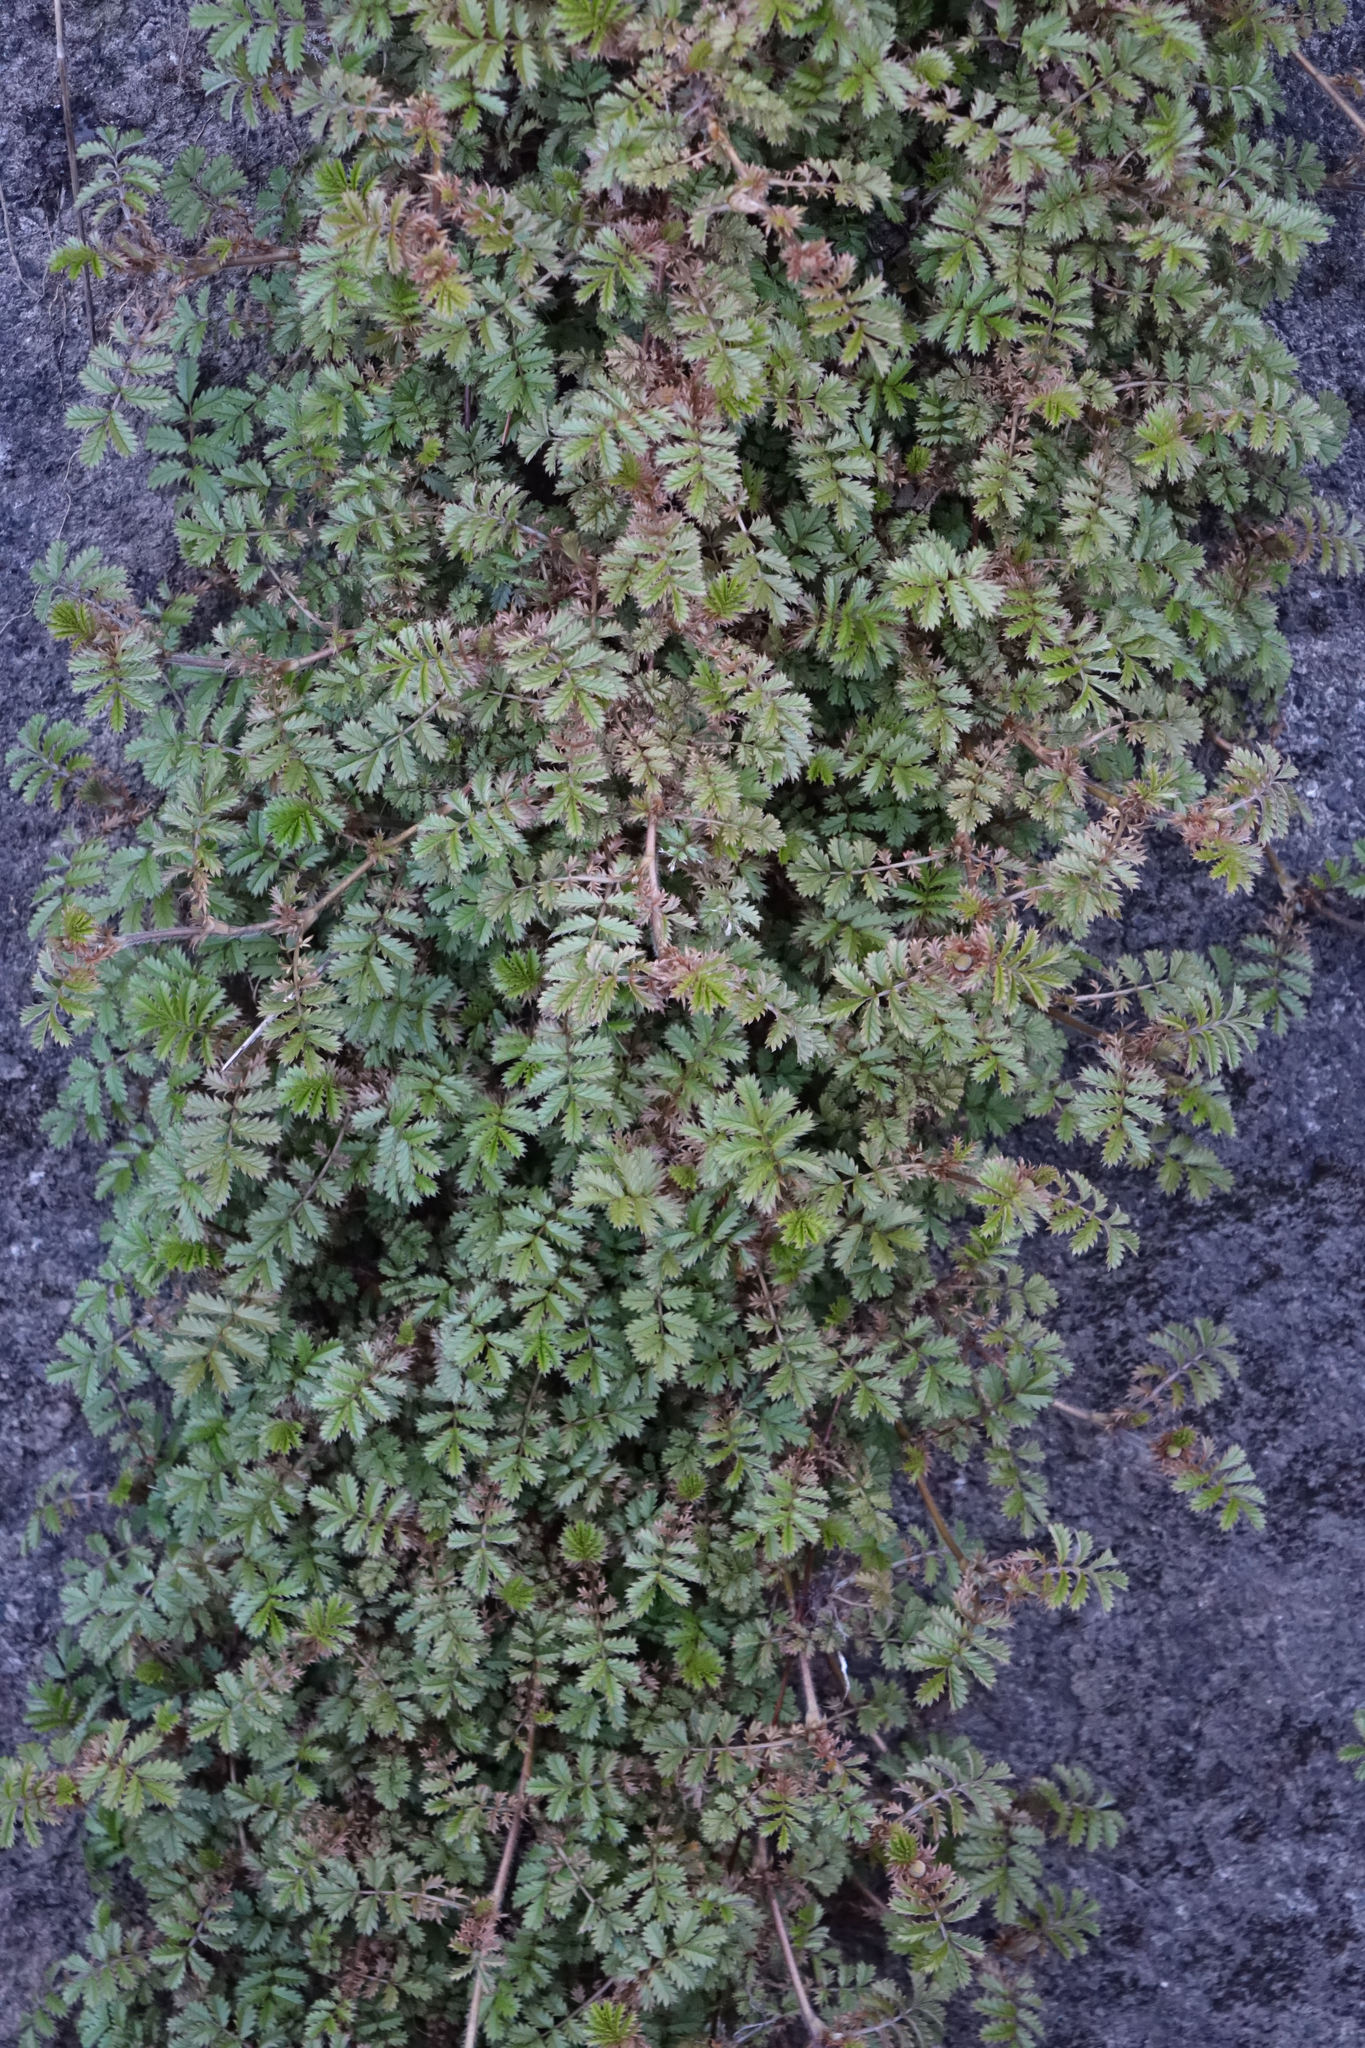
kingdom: Plantae
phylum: Tracheophyta
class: Magnoliopsida
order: Rosales
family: Rosaceae
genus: Acaena
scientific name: Acaena anserinifolia
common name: Bronze pirri-pirri-bur
